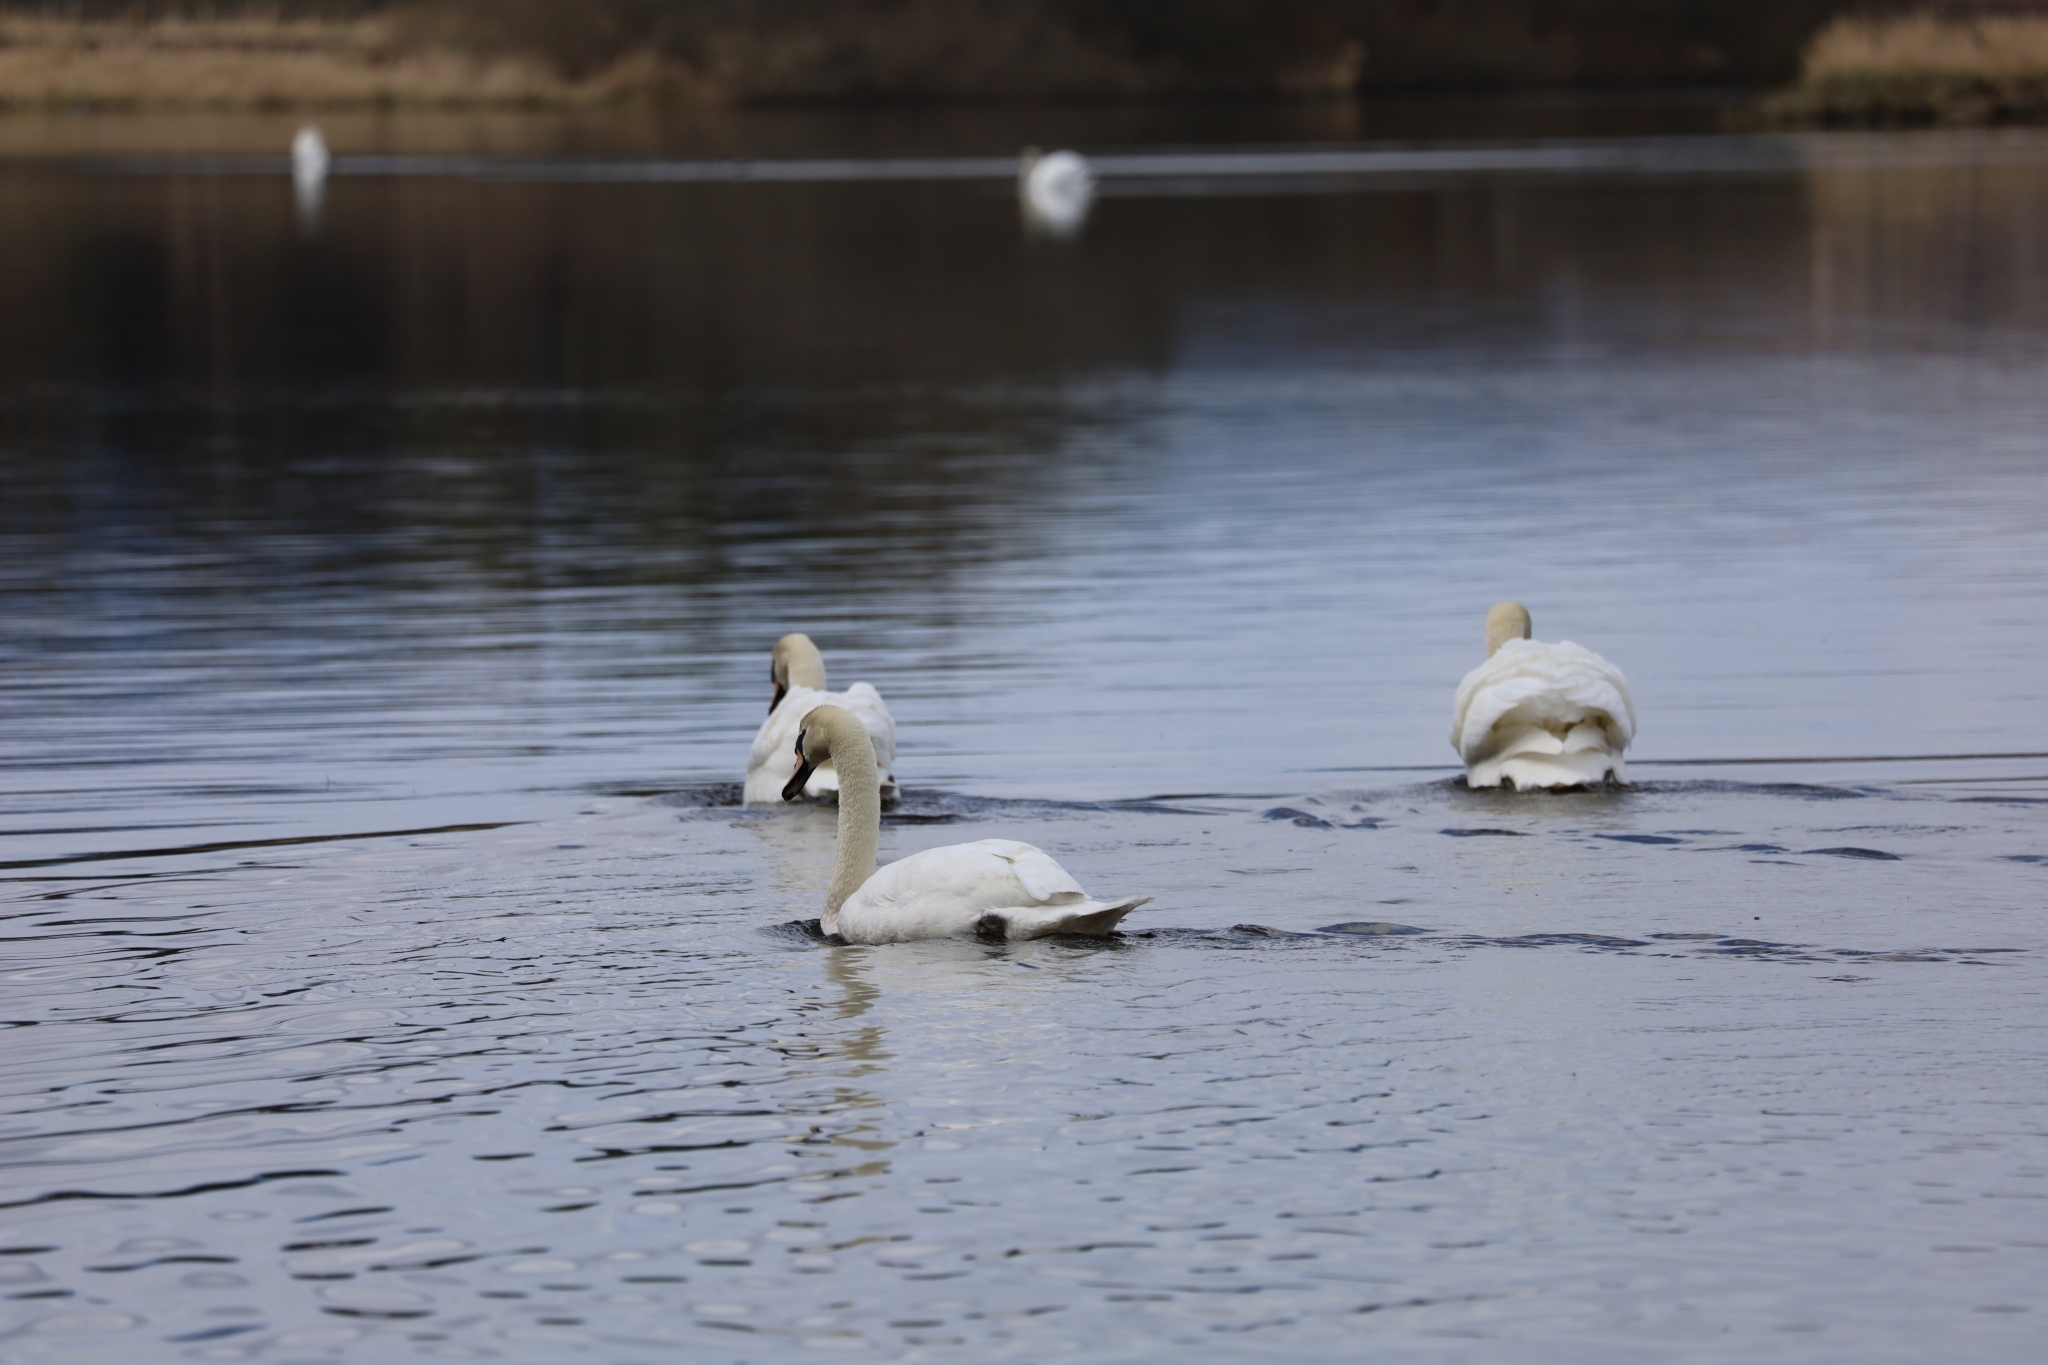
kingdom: Animalia
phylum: Chordata
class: Aves
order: Anseriformes
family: Anatidae
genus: Cygnus
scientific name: Cygnus olor
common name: Mute swan
